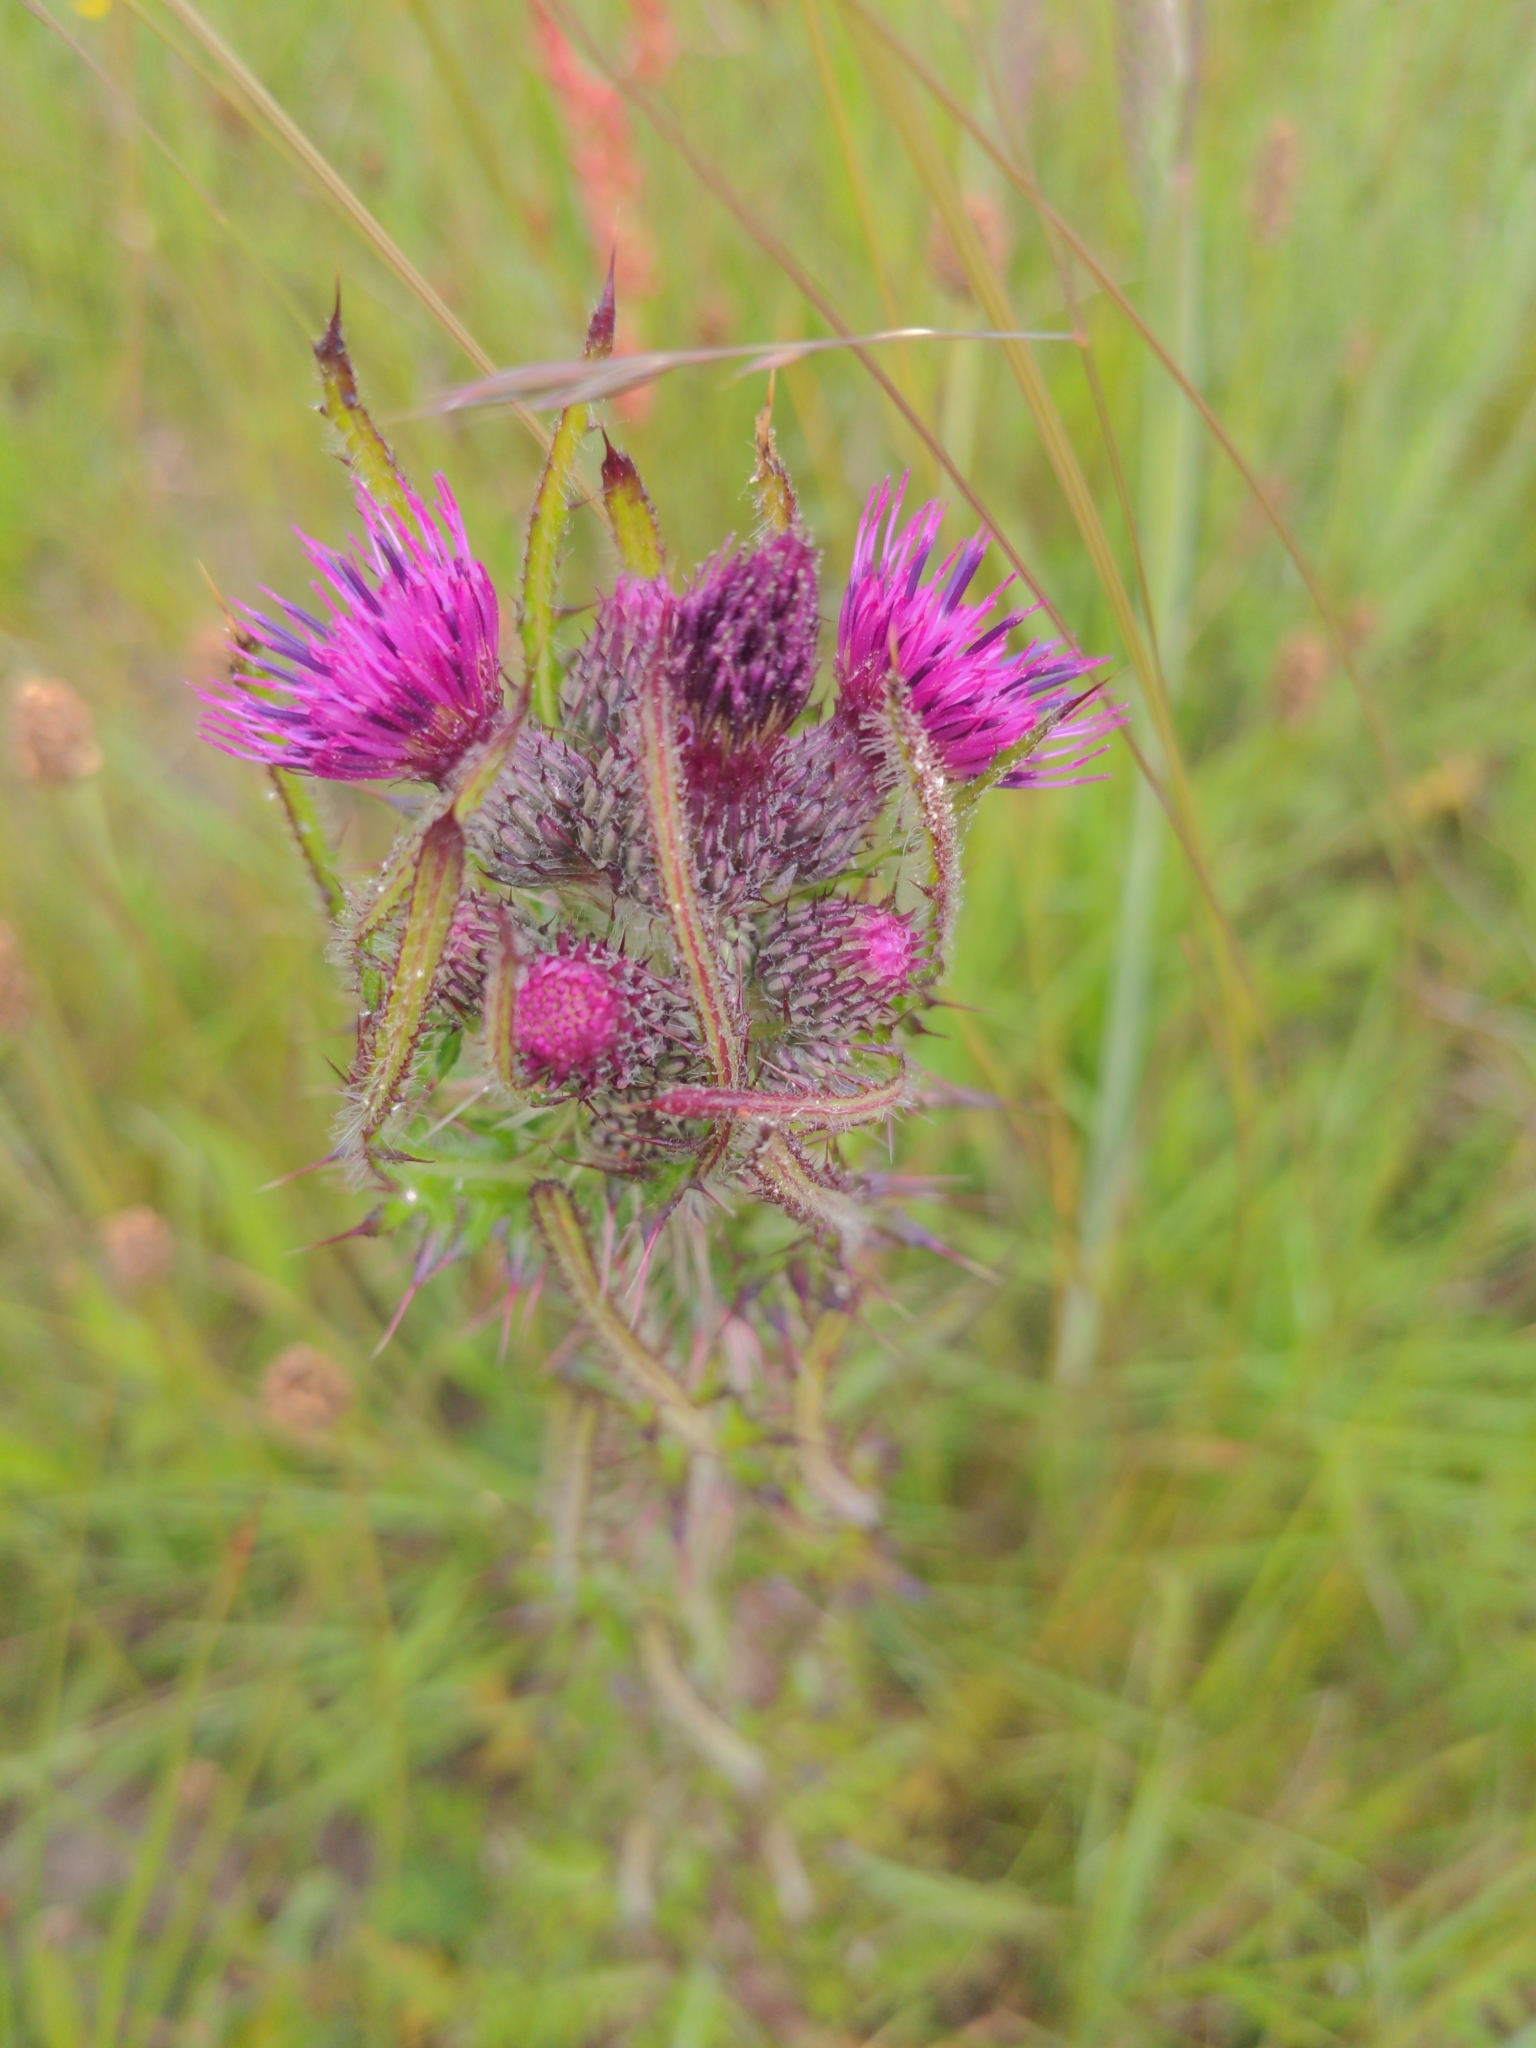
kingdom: Plantae
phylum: Tracheophyta
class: Magnoliopsida
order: Asterales
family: Asteraceae
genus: Cirsium
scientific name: Cirsium palustre
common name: Marsh thistle
